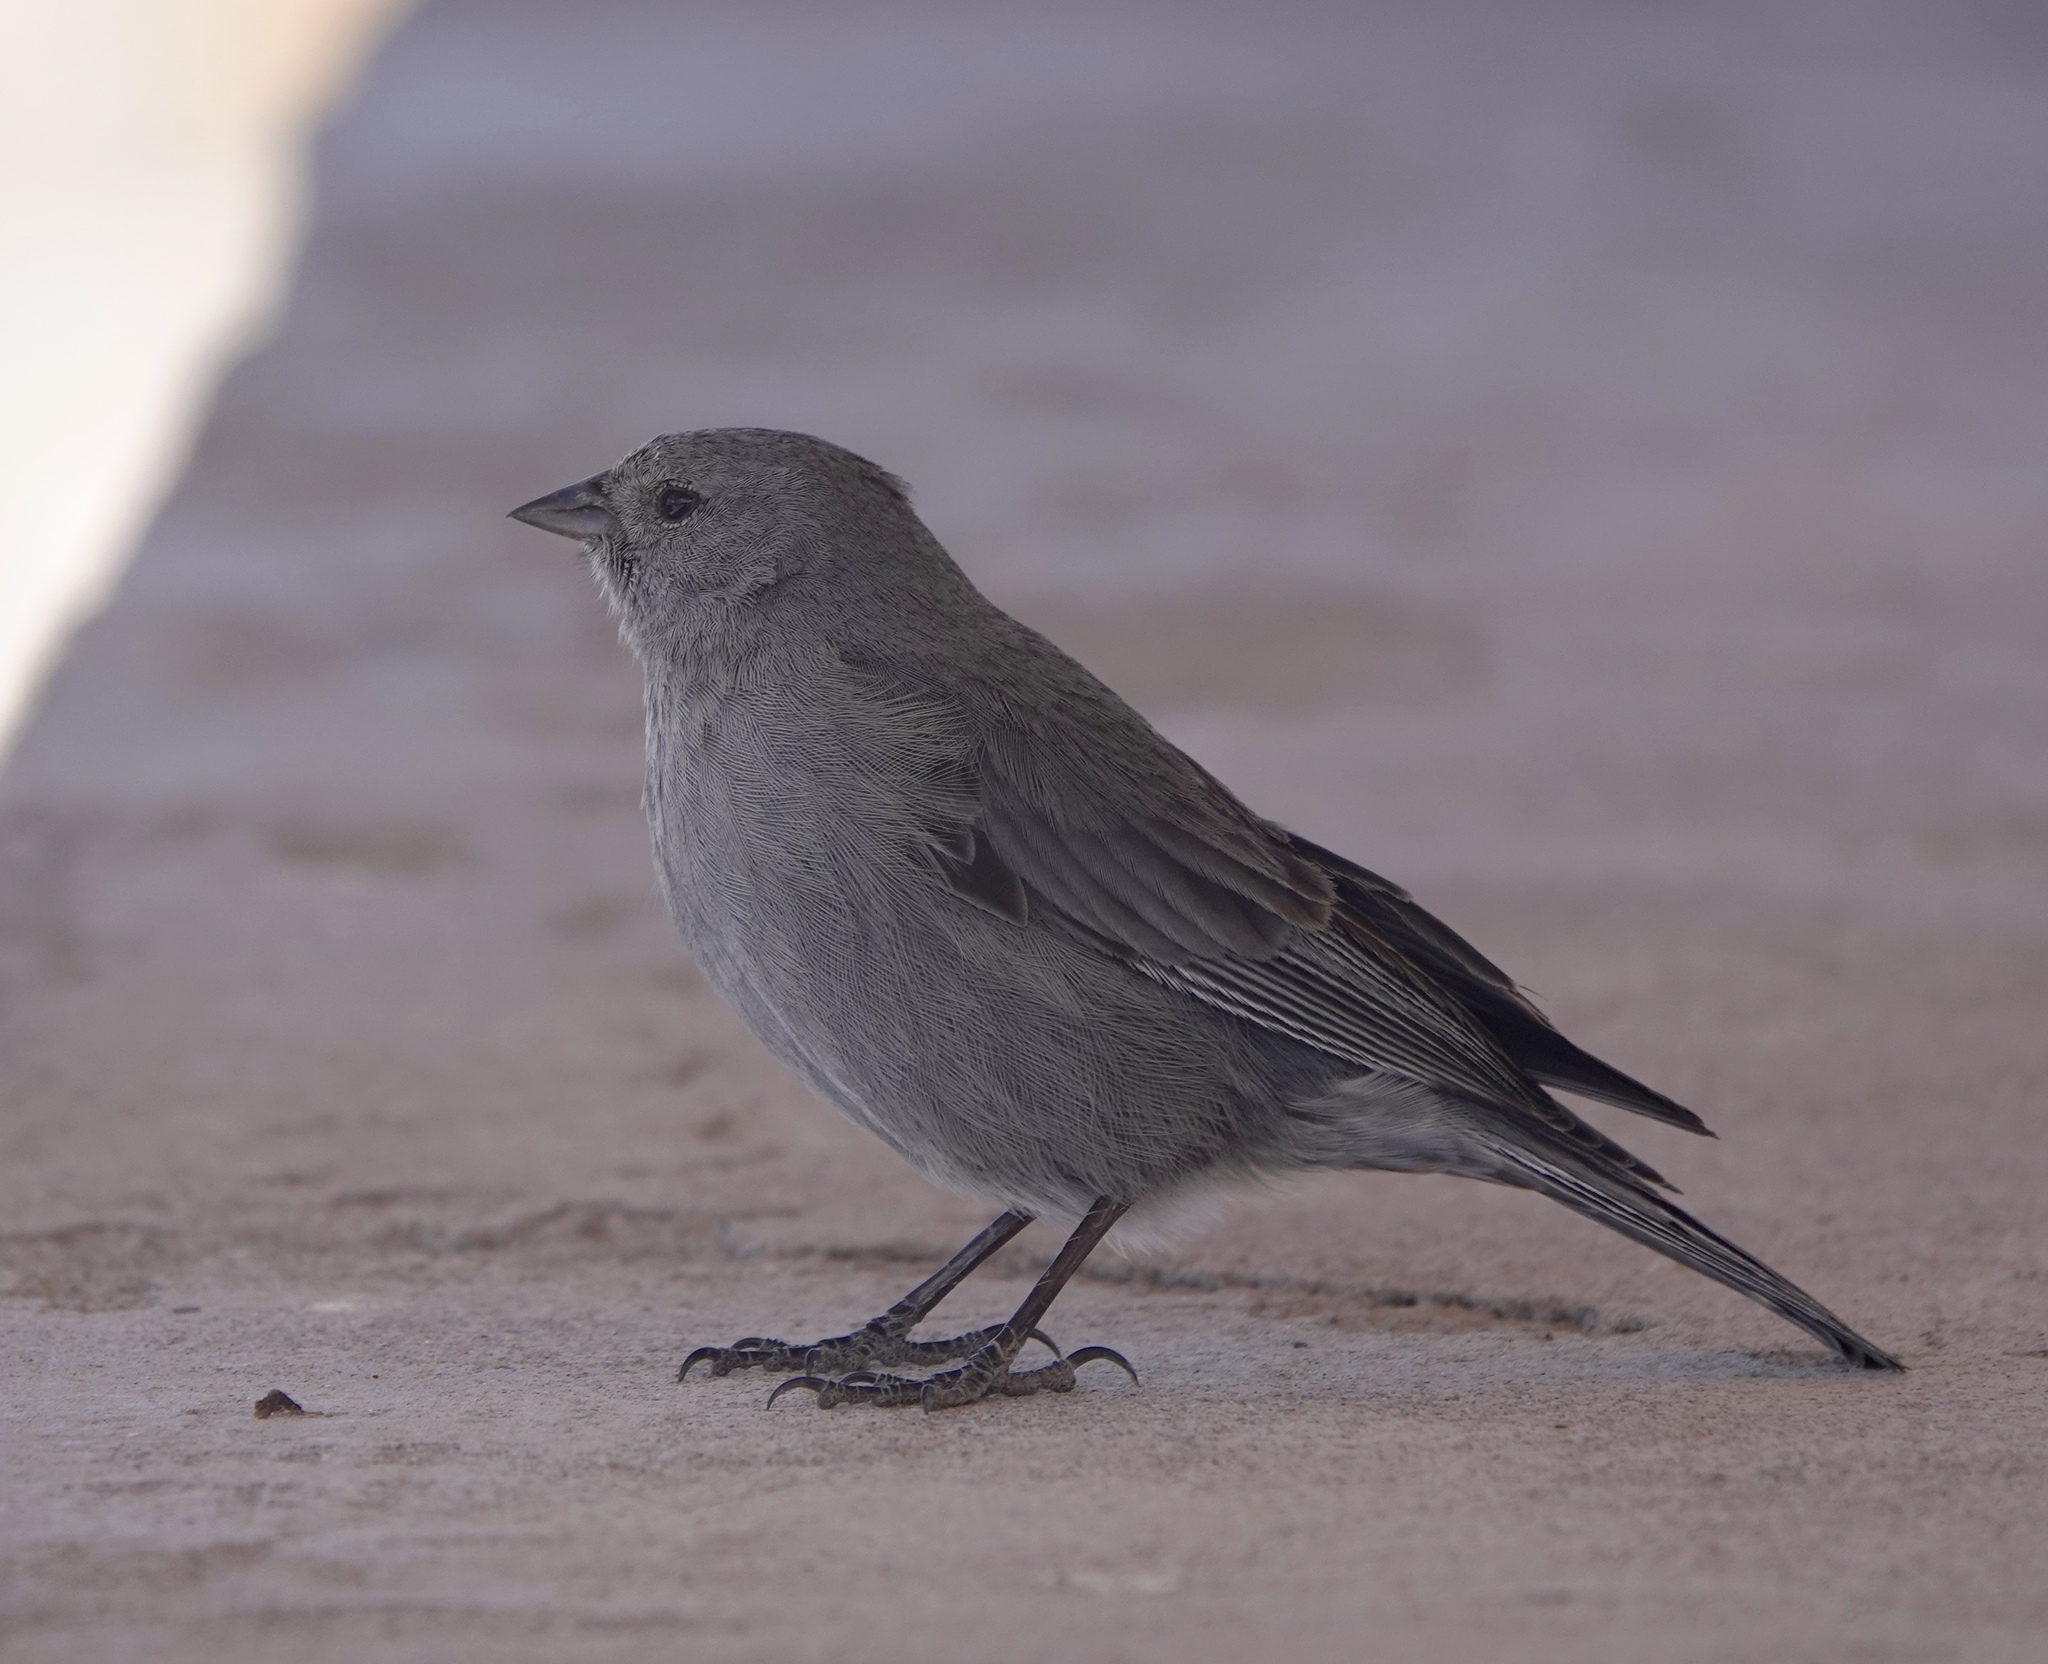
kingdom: Animalia
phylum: Chordata
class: Aves
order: Passeriformes
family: Thraupidae
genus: Geospizopsis
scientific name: Geospizopsis unicolor
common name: Plumbeous sierra-finch
